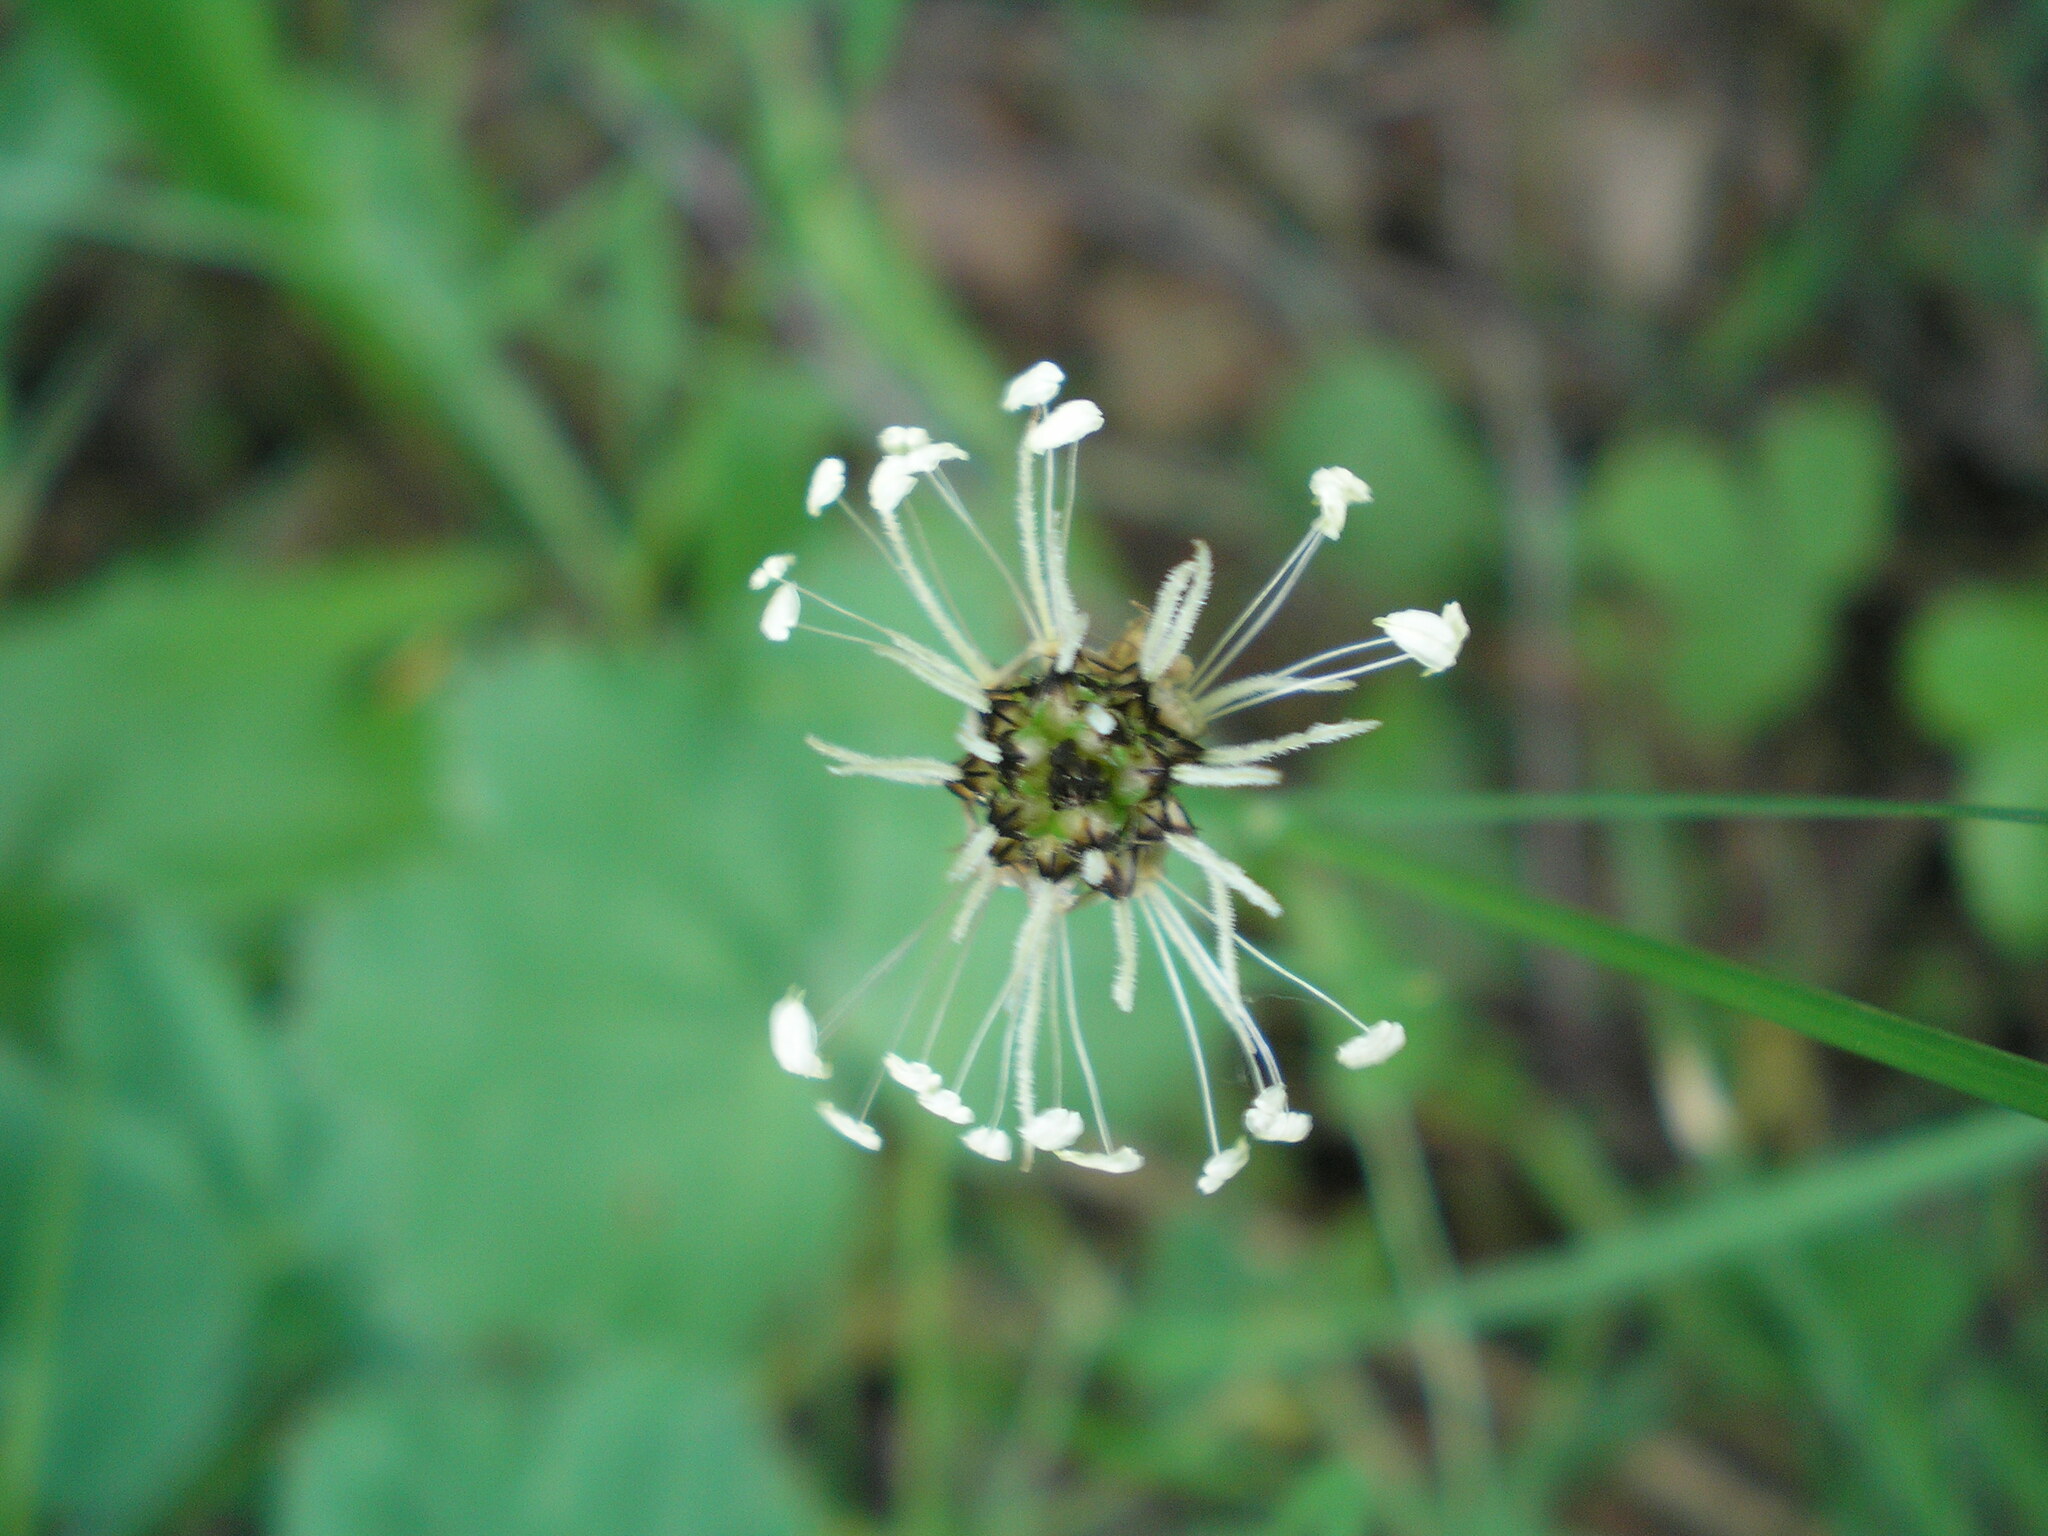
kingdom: Plantae
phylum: Tracheophyta
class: Magnoliopsida
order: Lamiales
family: Plantaginaceae
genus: Plantago
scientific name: Plantago lanceolata
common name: Ribwort plantain
